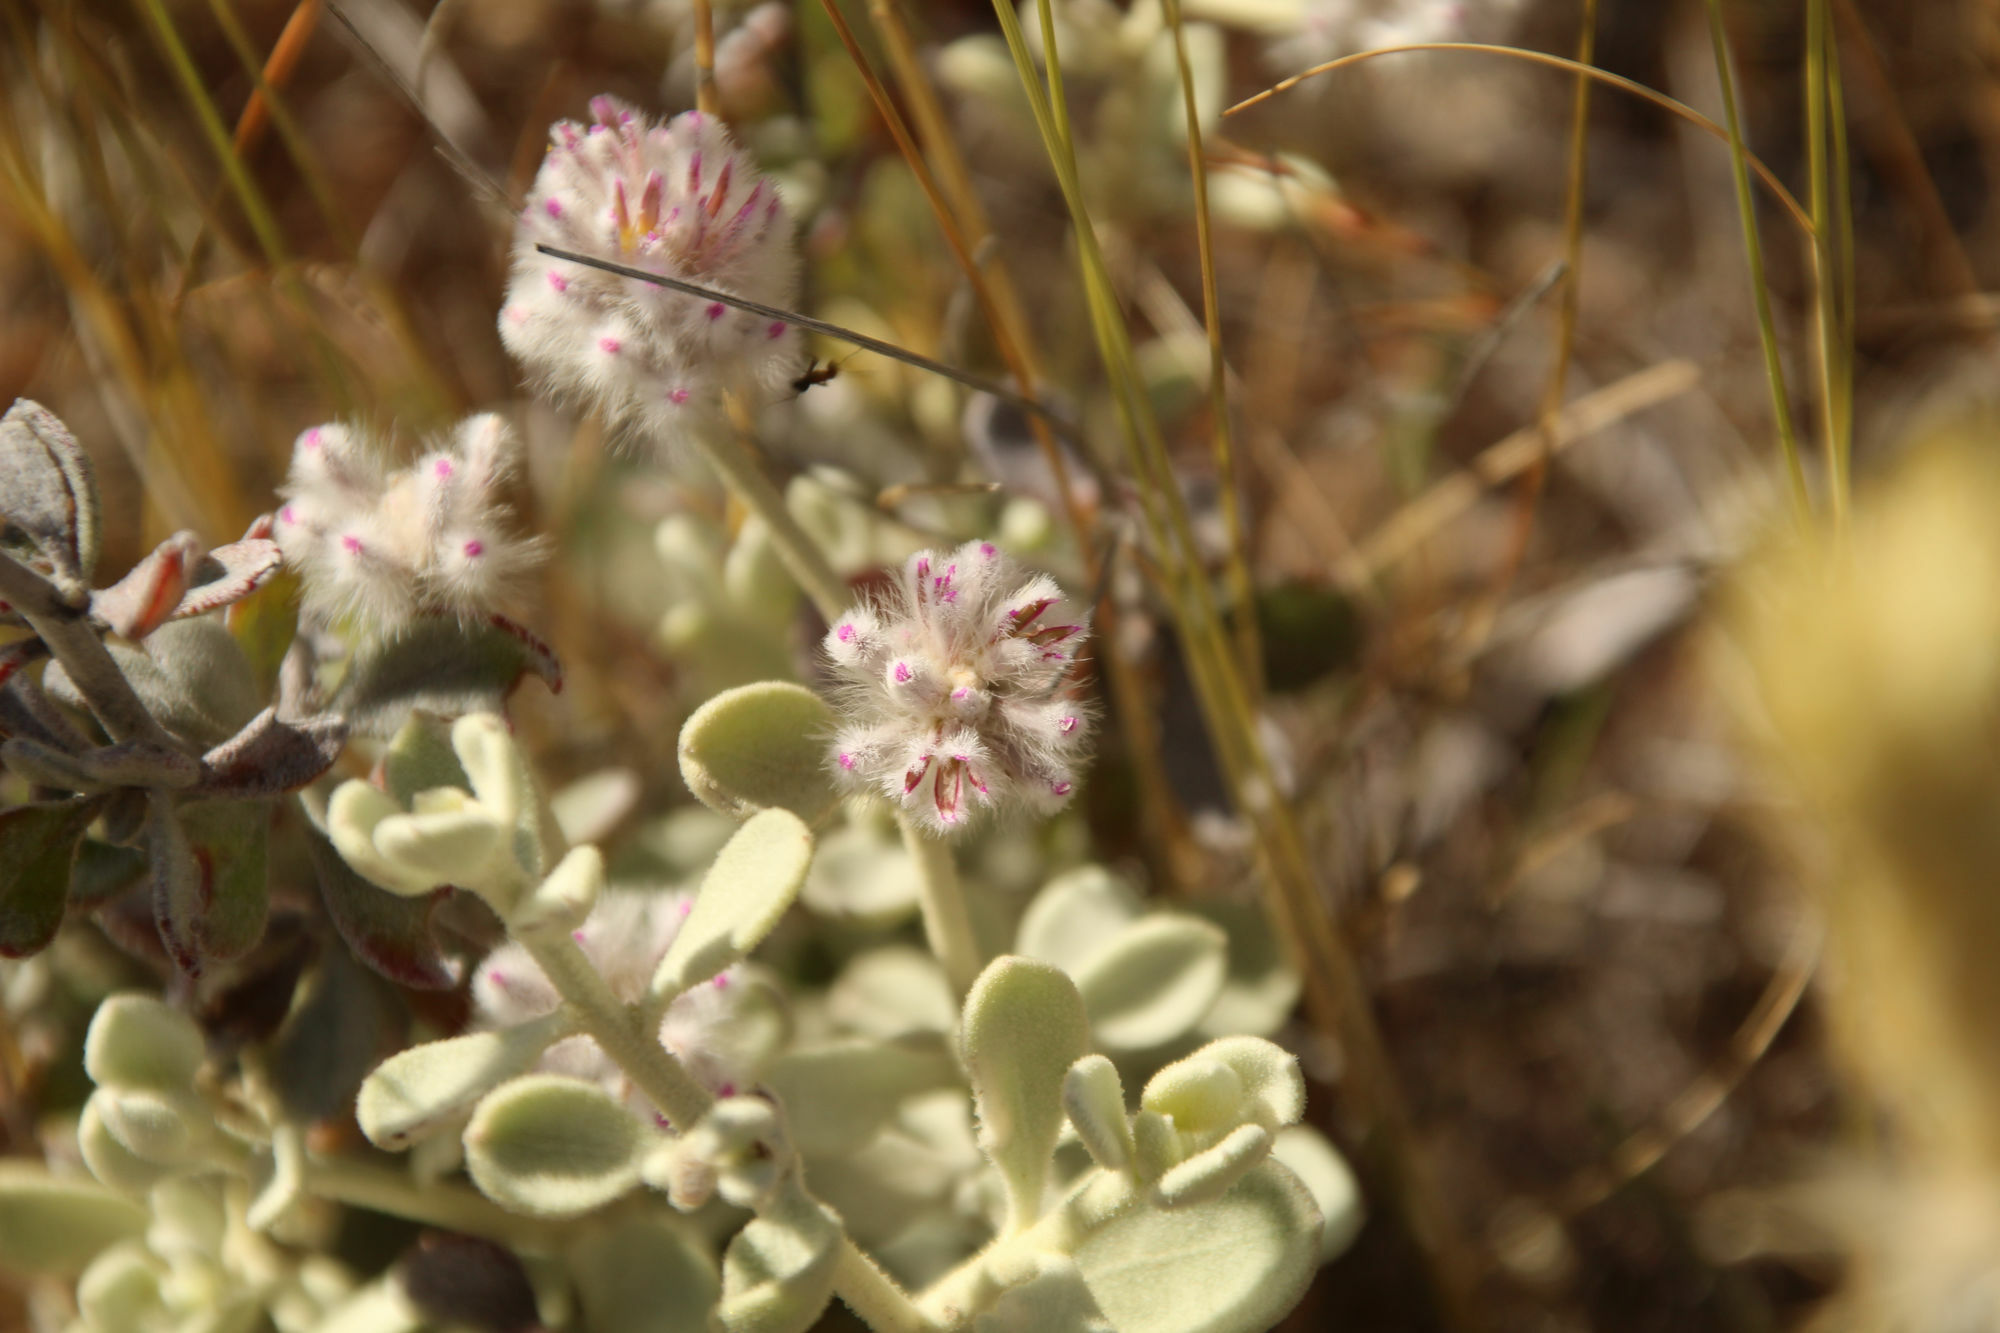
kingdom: Plantae
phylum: Tracheophyta
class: Magnoliopsida
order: Caryophyllales
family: Amaranthaceae
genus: Ptilotus
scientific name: Ptilotus obovatus
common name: Cottonbush
